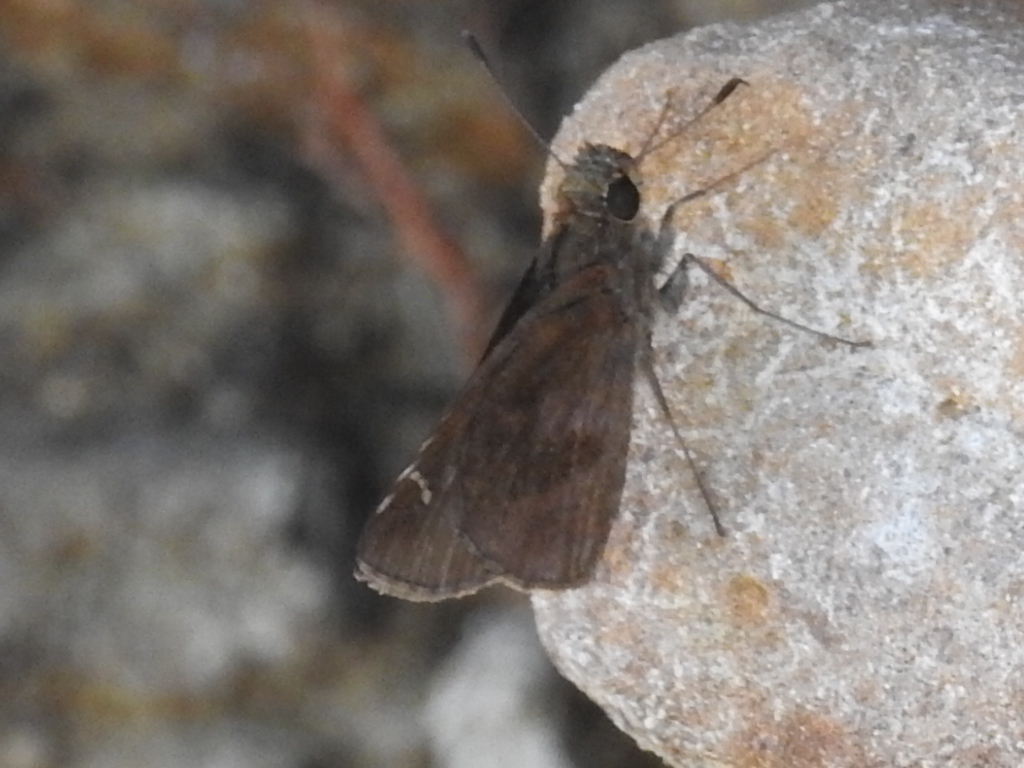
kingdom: Animalia
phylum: Arthropoda
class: Insecta
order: Lepidoptera
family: Hesperiidae
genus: Lerema
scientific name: Lerema accius
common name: Clouded skipper
